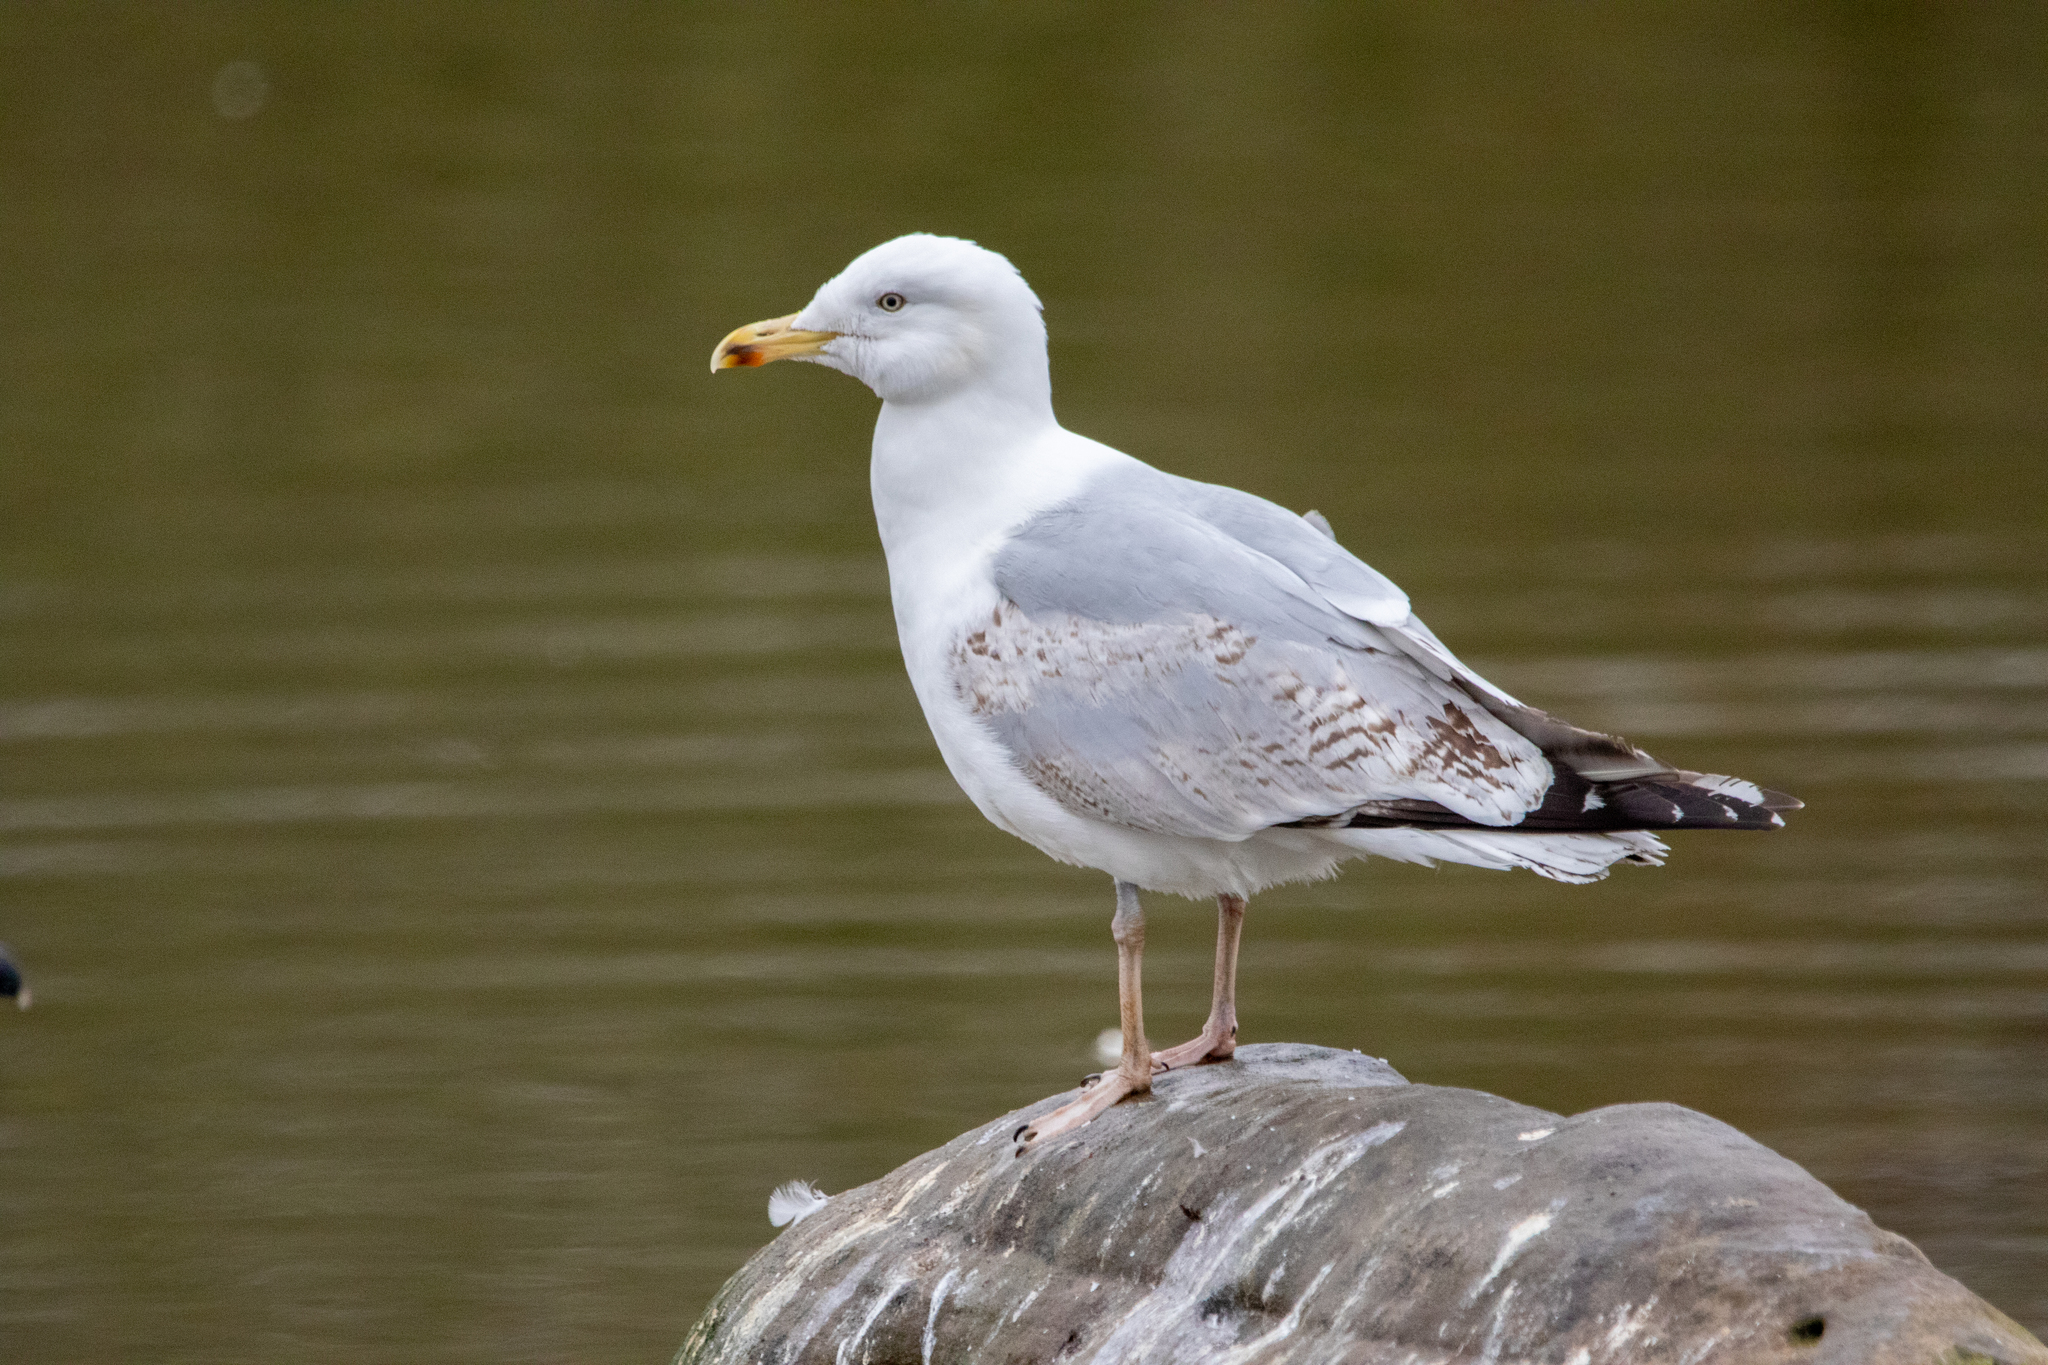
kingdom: Animalia
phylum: Chordata
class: Aves
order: Charadriiformes
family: Laridae
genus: Larus
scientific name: Larus argentatus
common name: Herring gull
